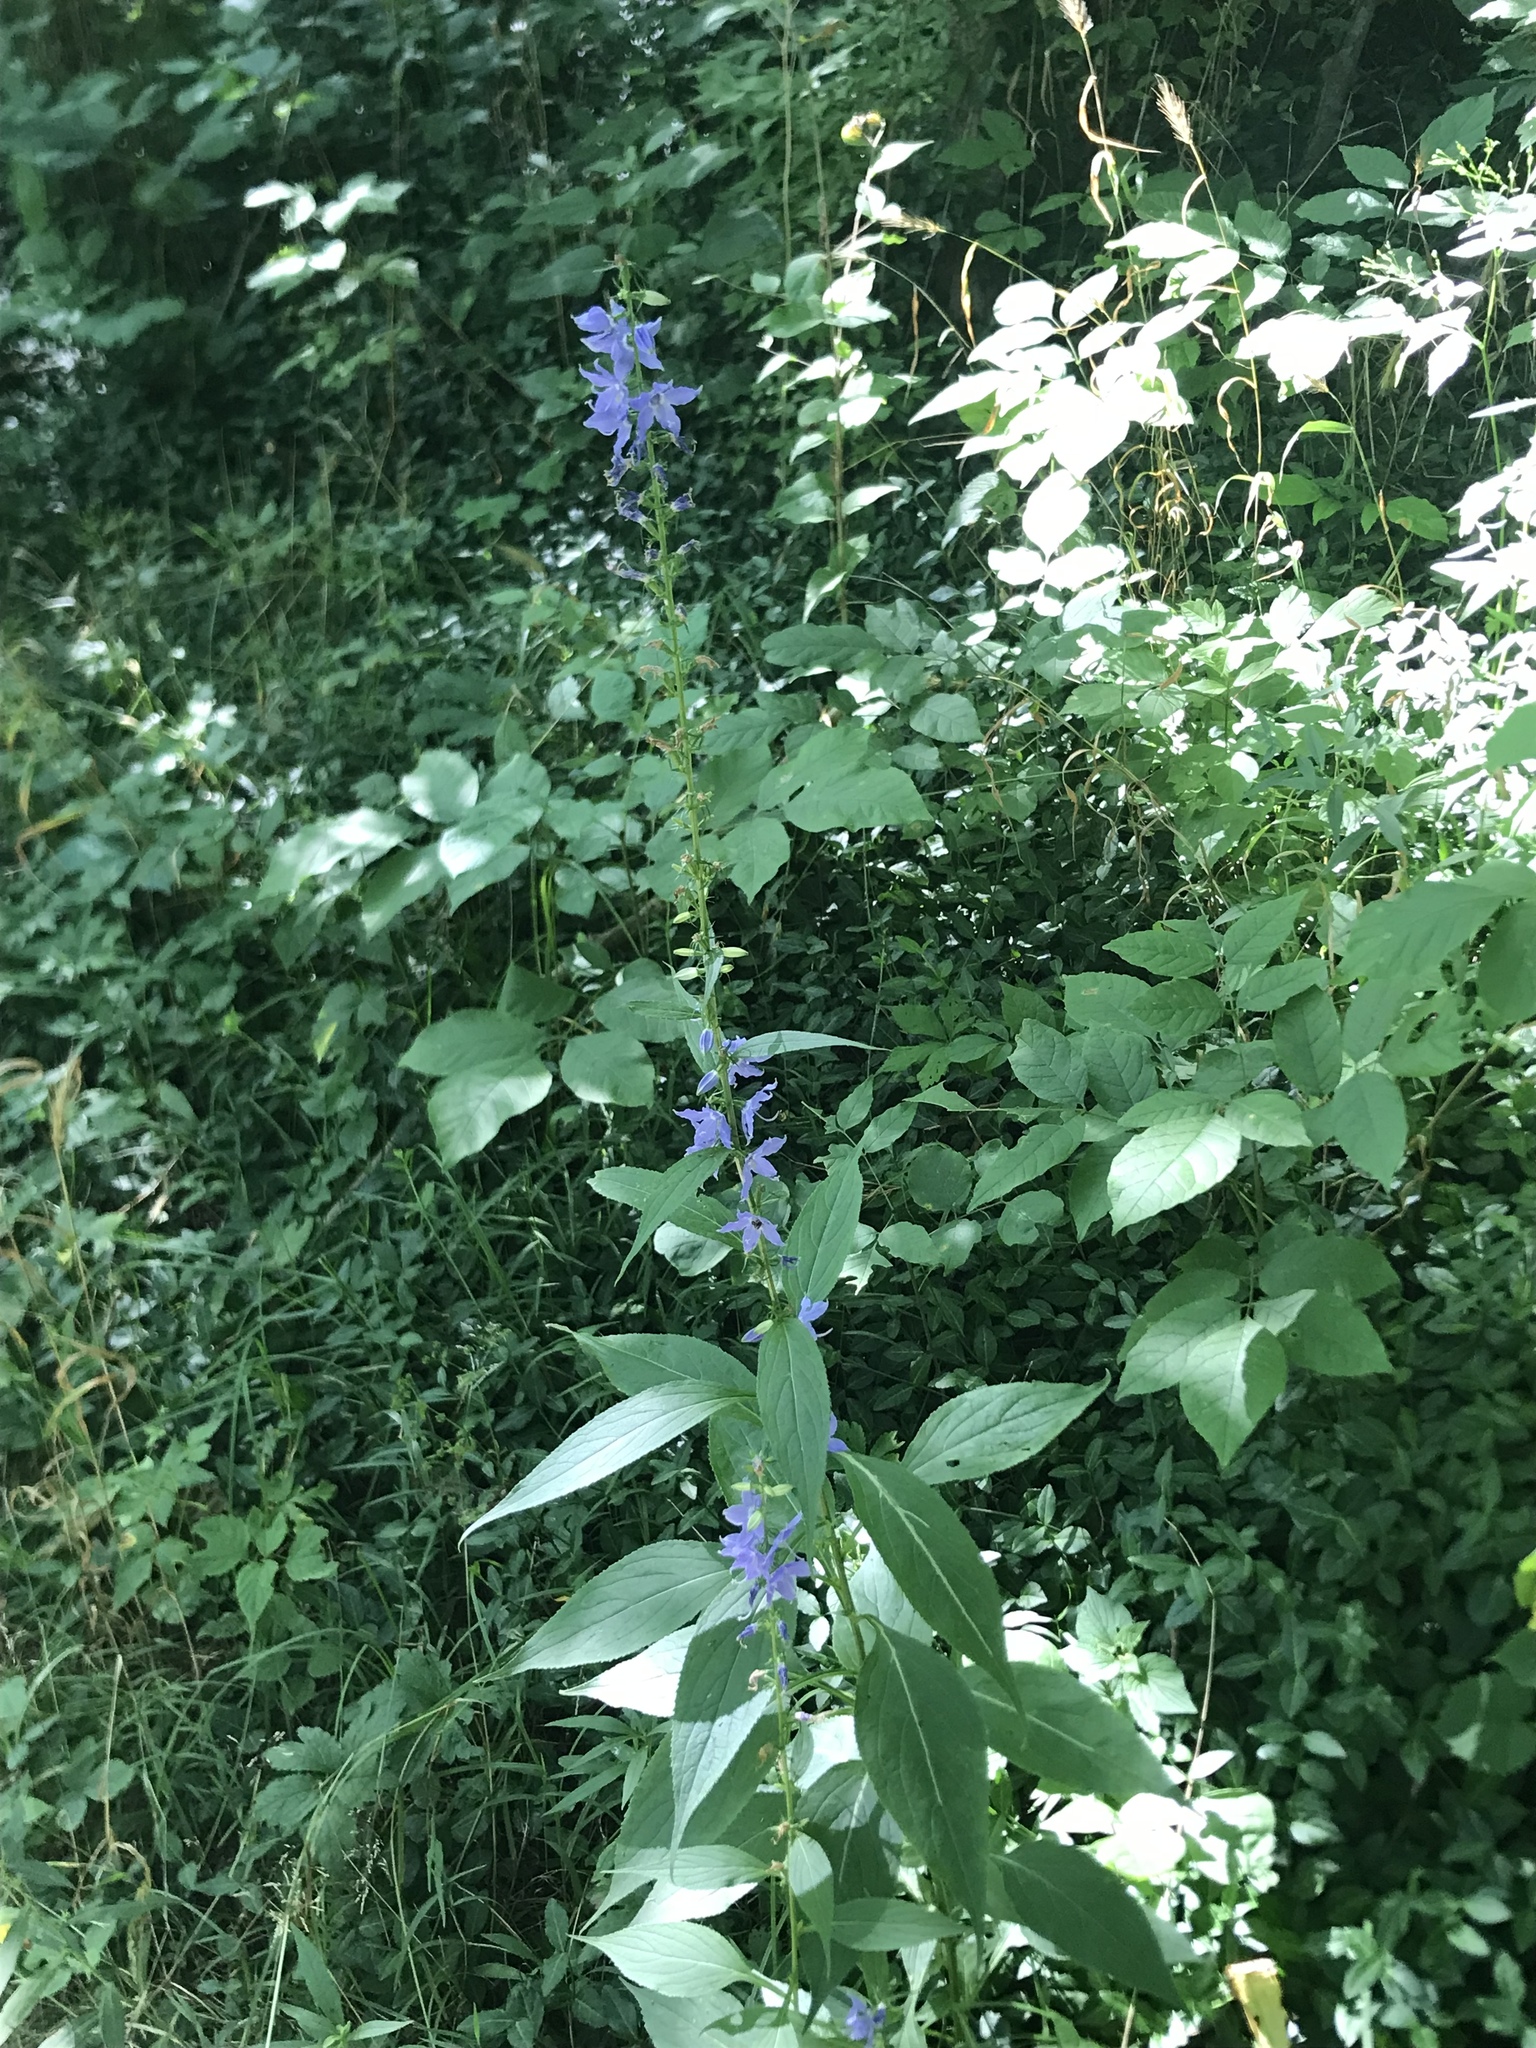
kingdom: Plantae
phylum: Tracheophyta
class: Magnoliopsida
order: Asterales
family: Campanulaceae
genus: Campanulastrum
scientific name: Campanulastrum americanum
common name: American bellflower
